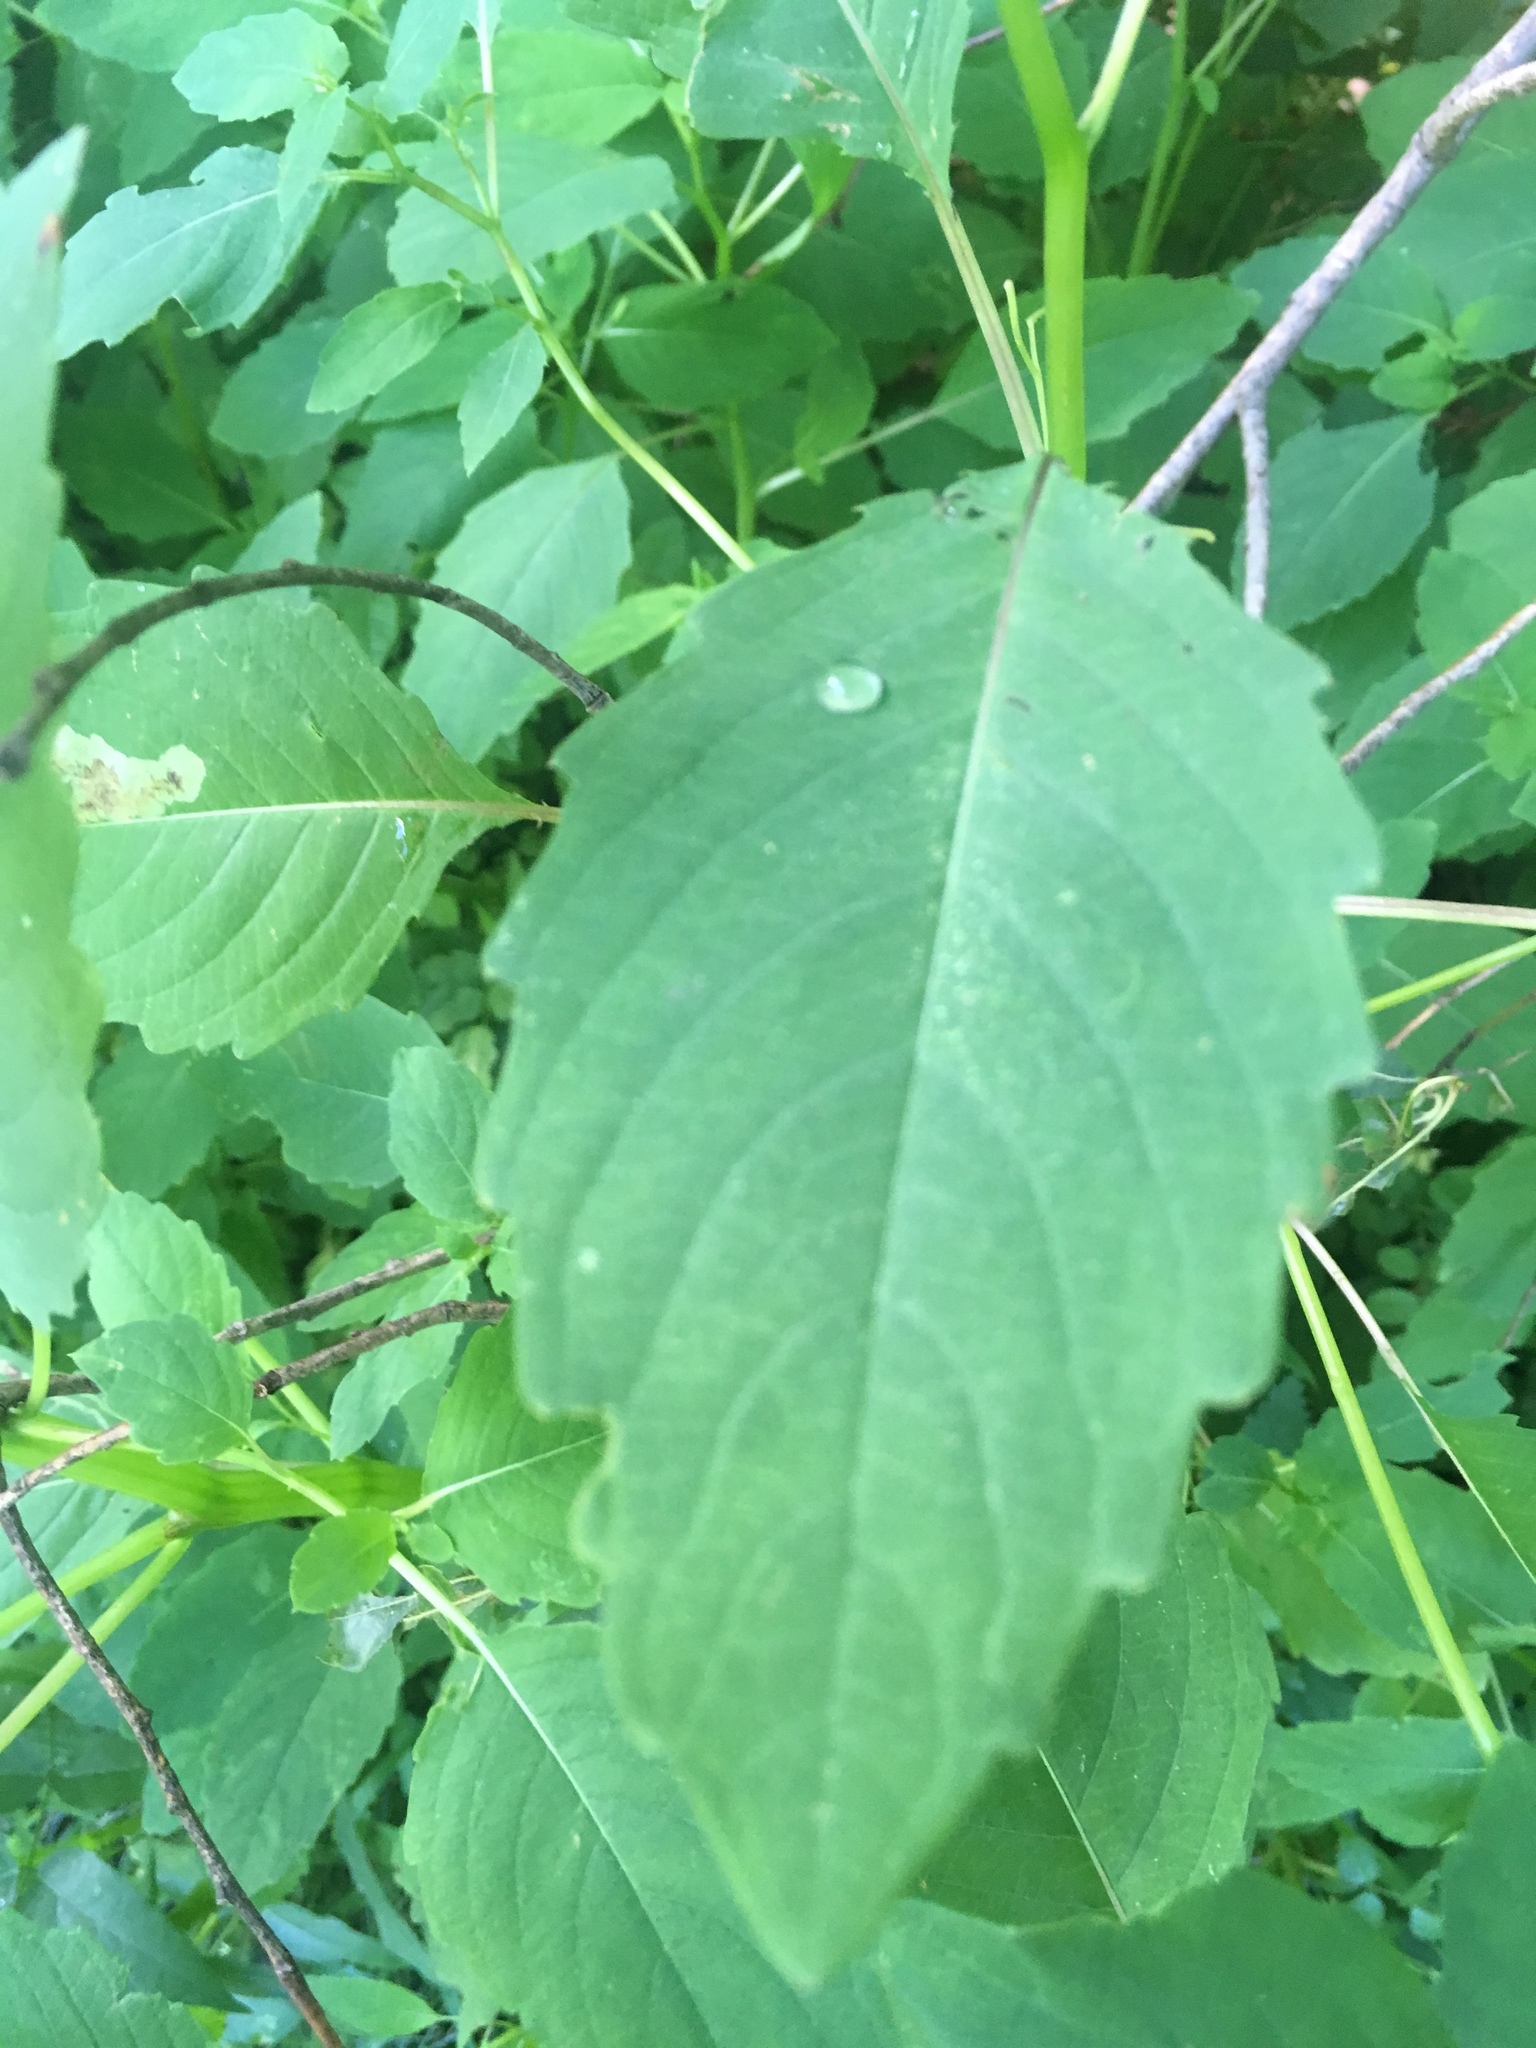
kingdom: Plantae
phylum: Tracheophyta
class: Magnoliopsida
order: Ericales
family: Balsaminaceae
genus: Impatiens
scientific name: Impatiens capensis
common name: Orange balsam
